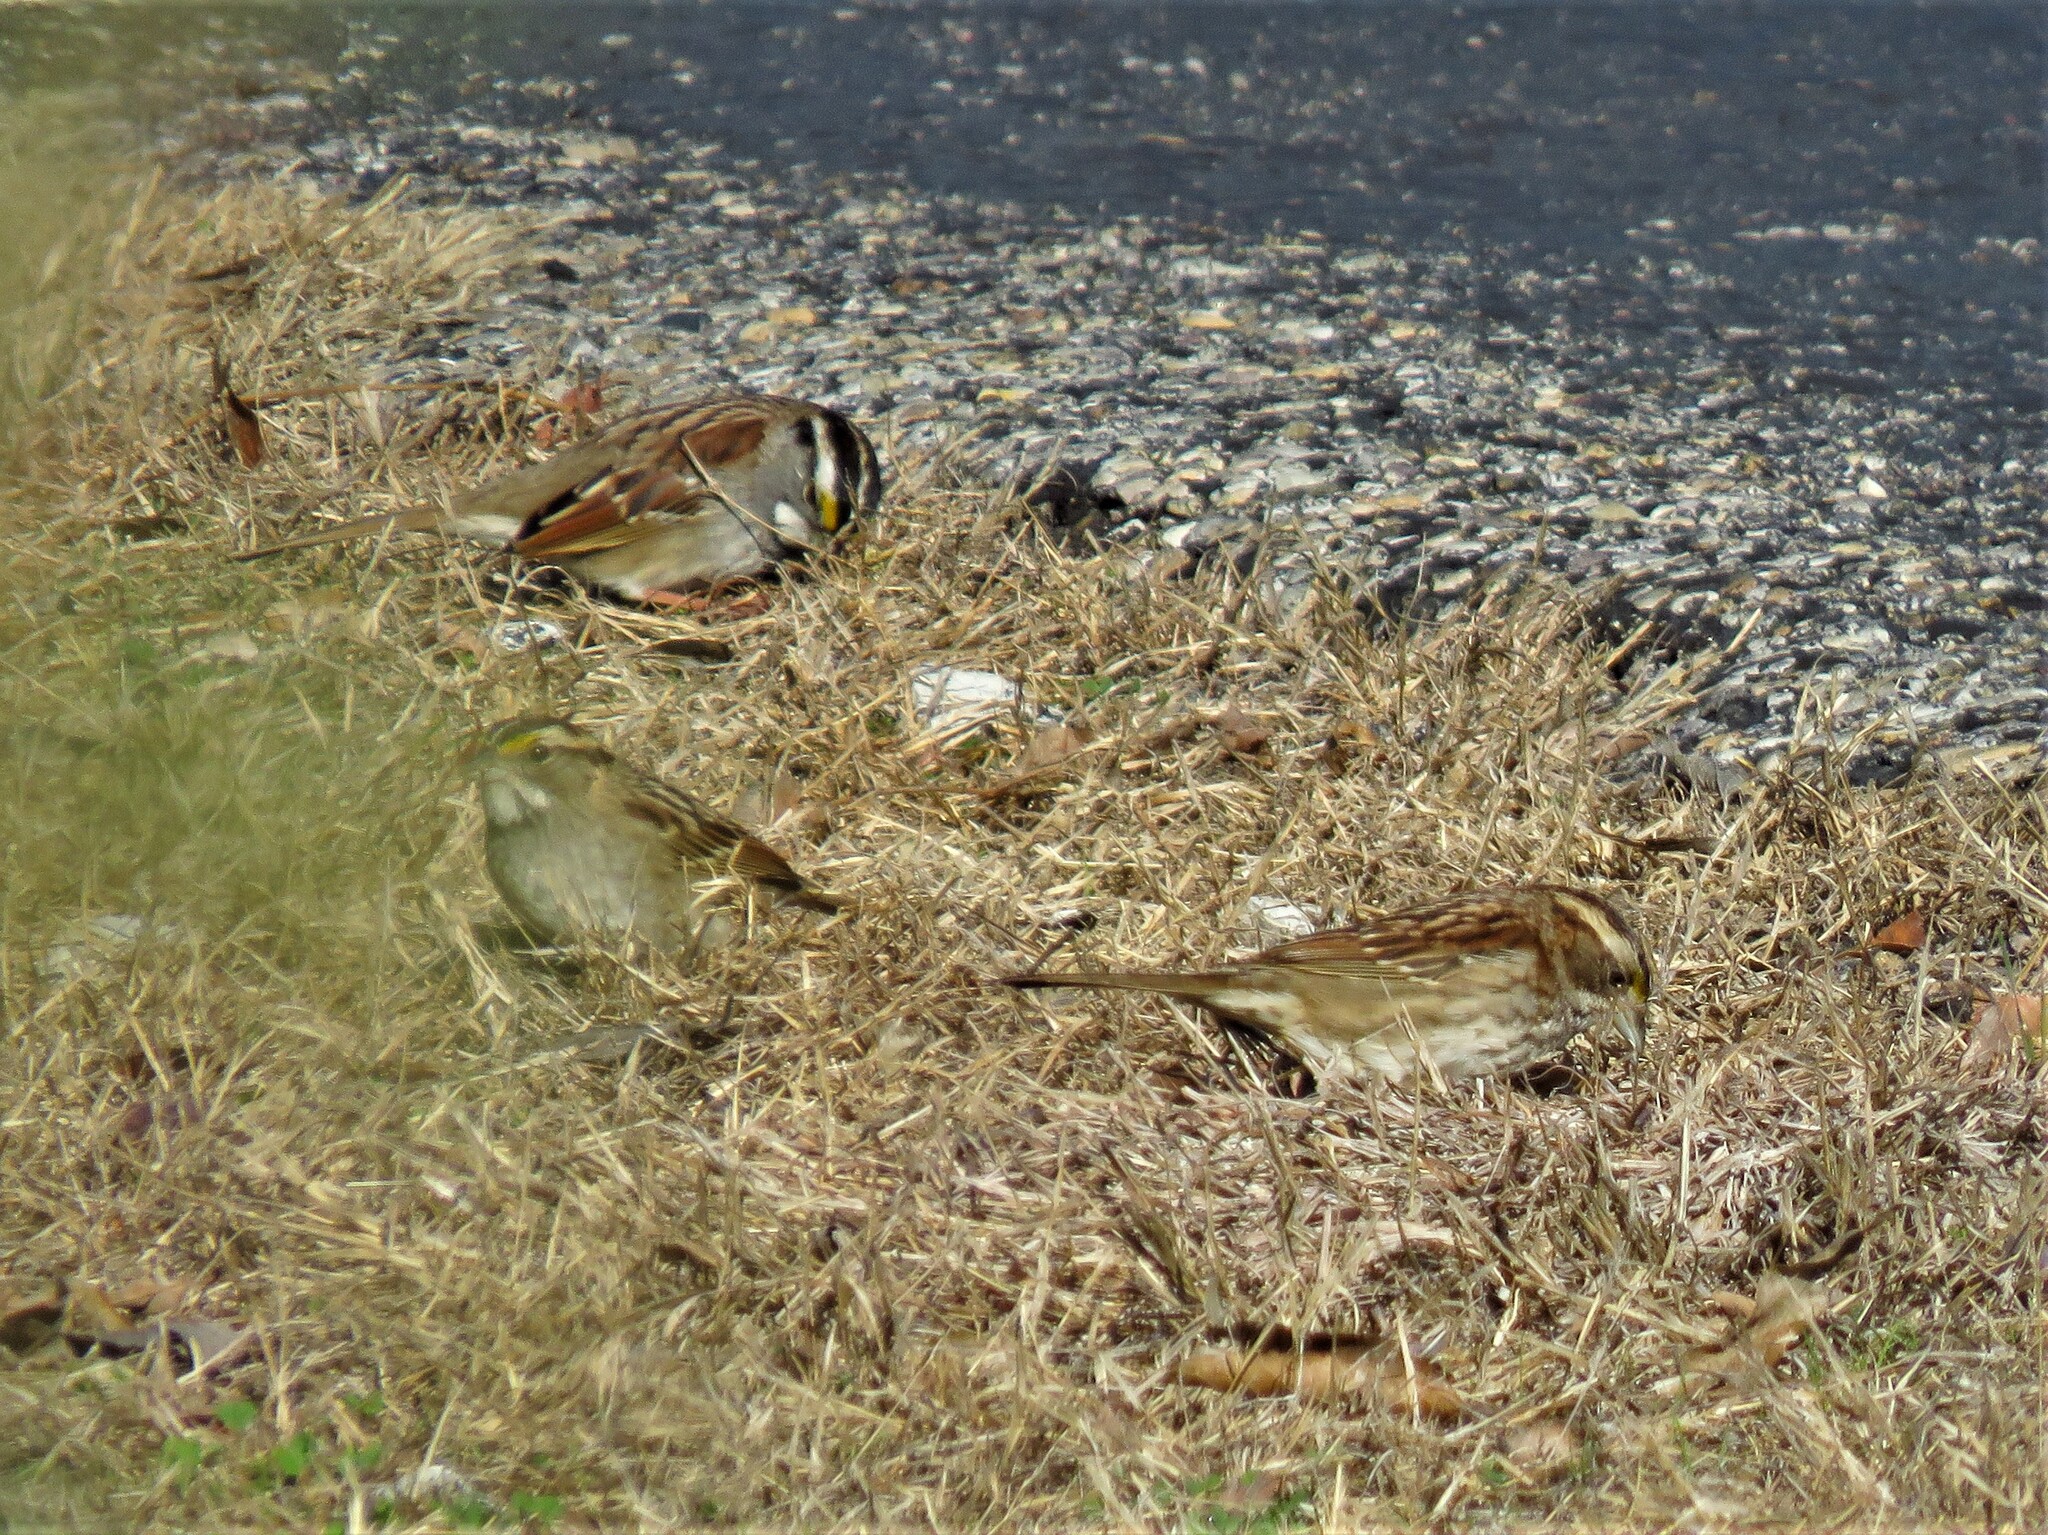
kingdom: Animalia
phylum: Chordata
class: Aves
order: Passeriformes
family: Passerellidae
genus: Zonotrichia
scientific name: Zonotrichia albicollis
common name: White-throated sparrow
